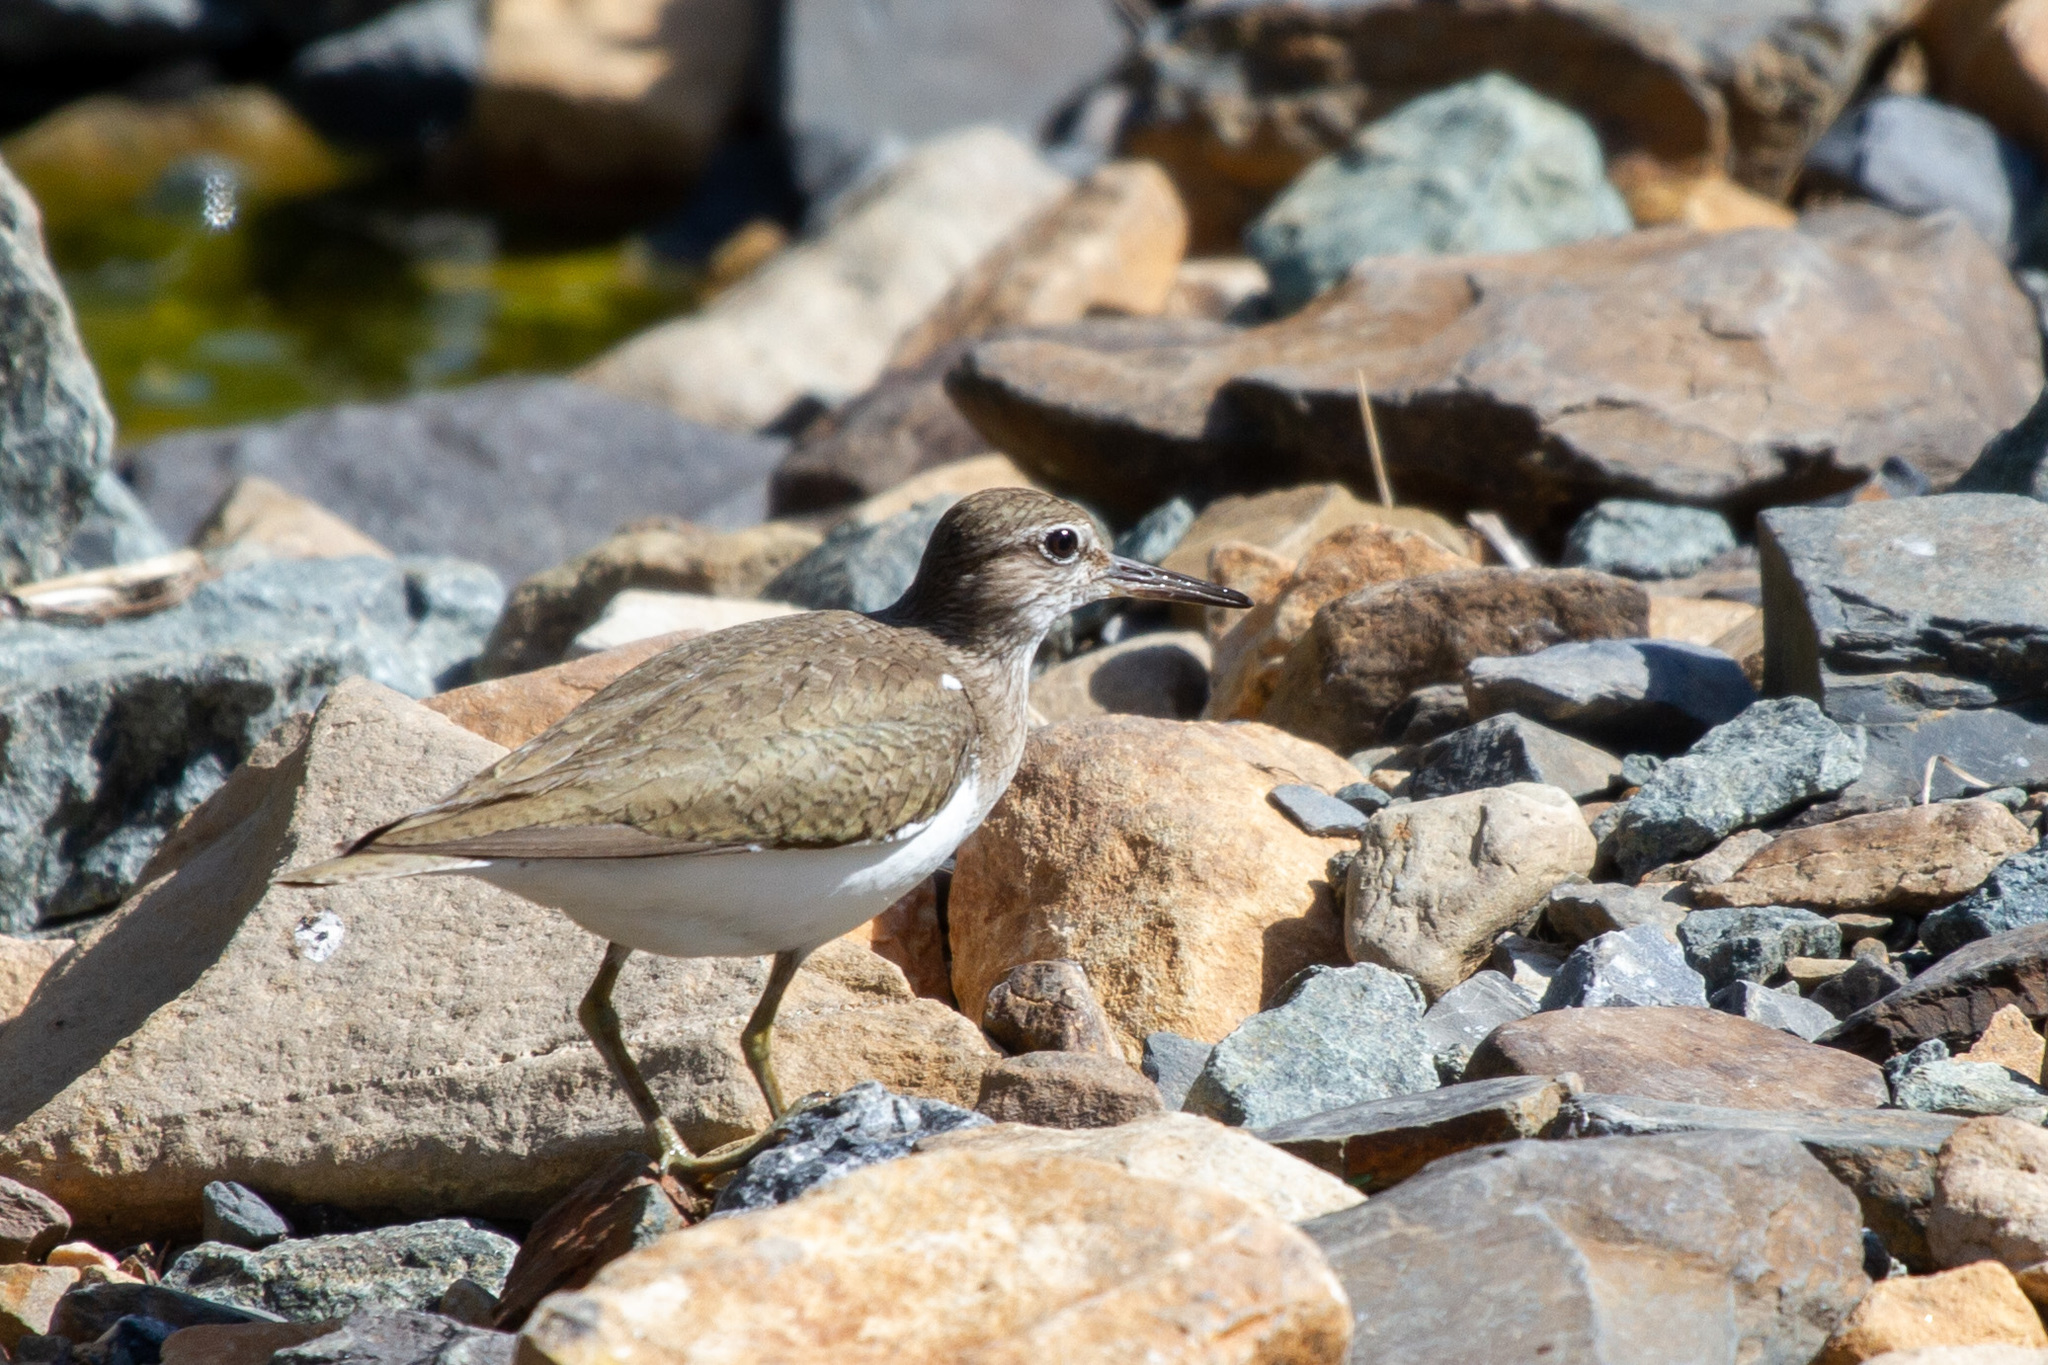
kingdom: Animalia
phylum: Chordata
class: Aves
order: Charadriiformes
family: Scolopacidae
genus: Actitis
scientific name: Actitis hypoleucos
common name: Common sandpiper
